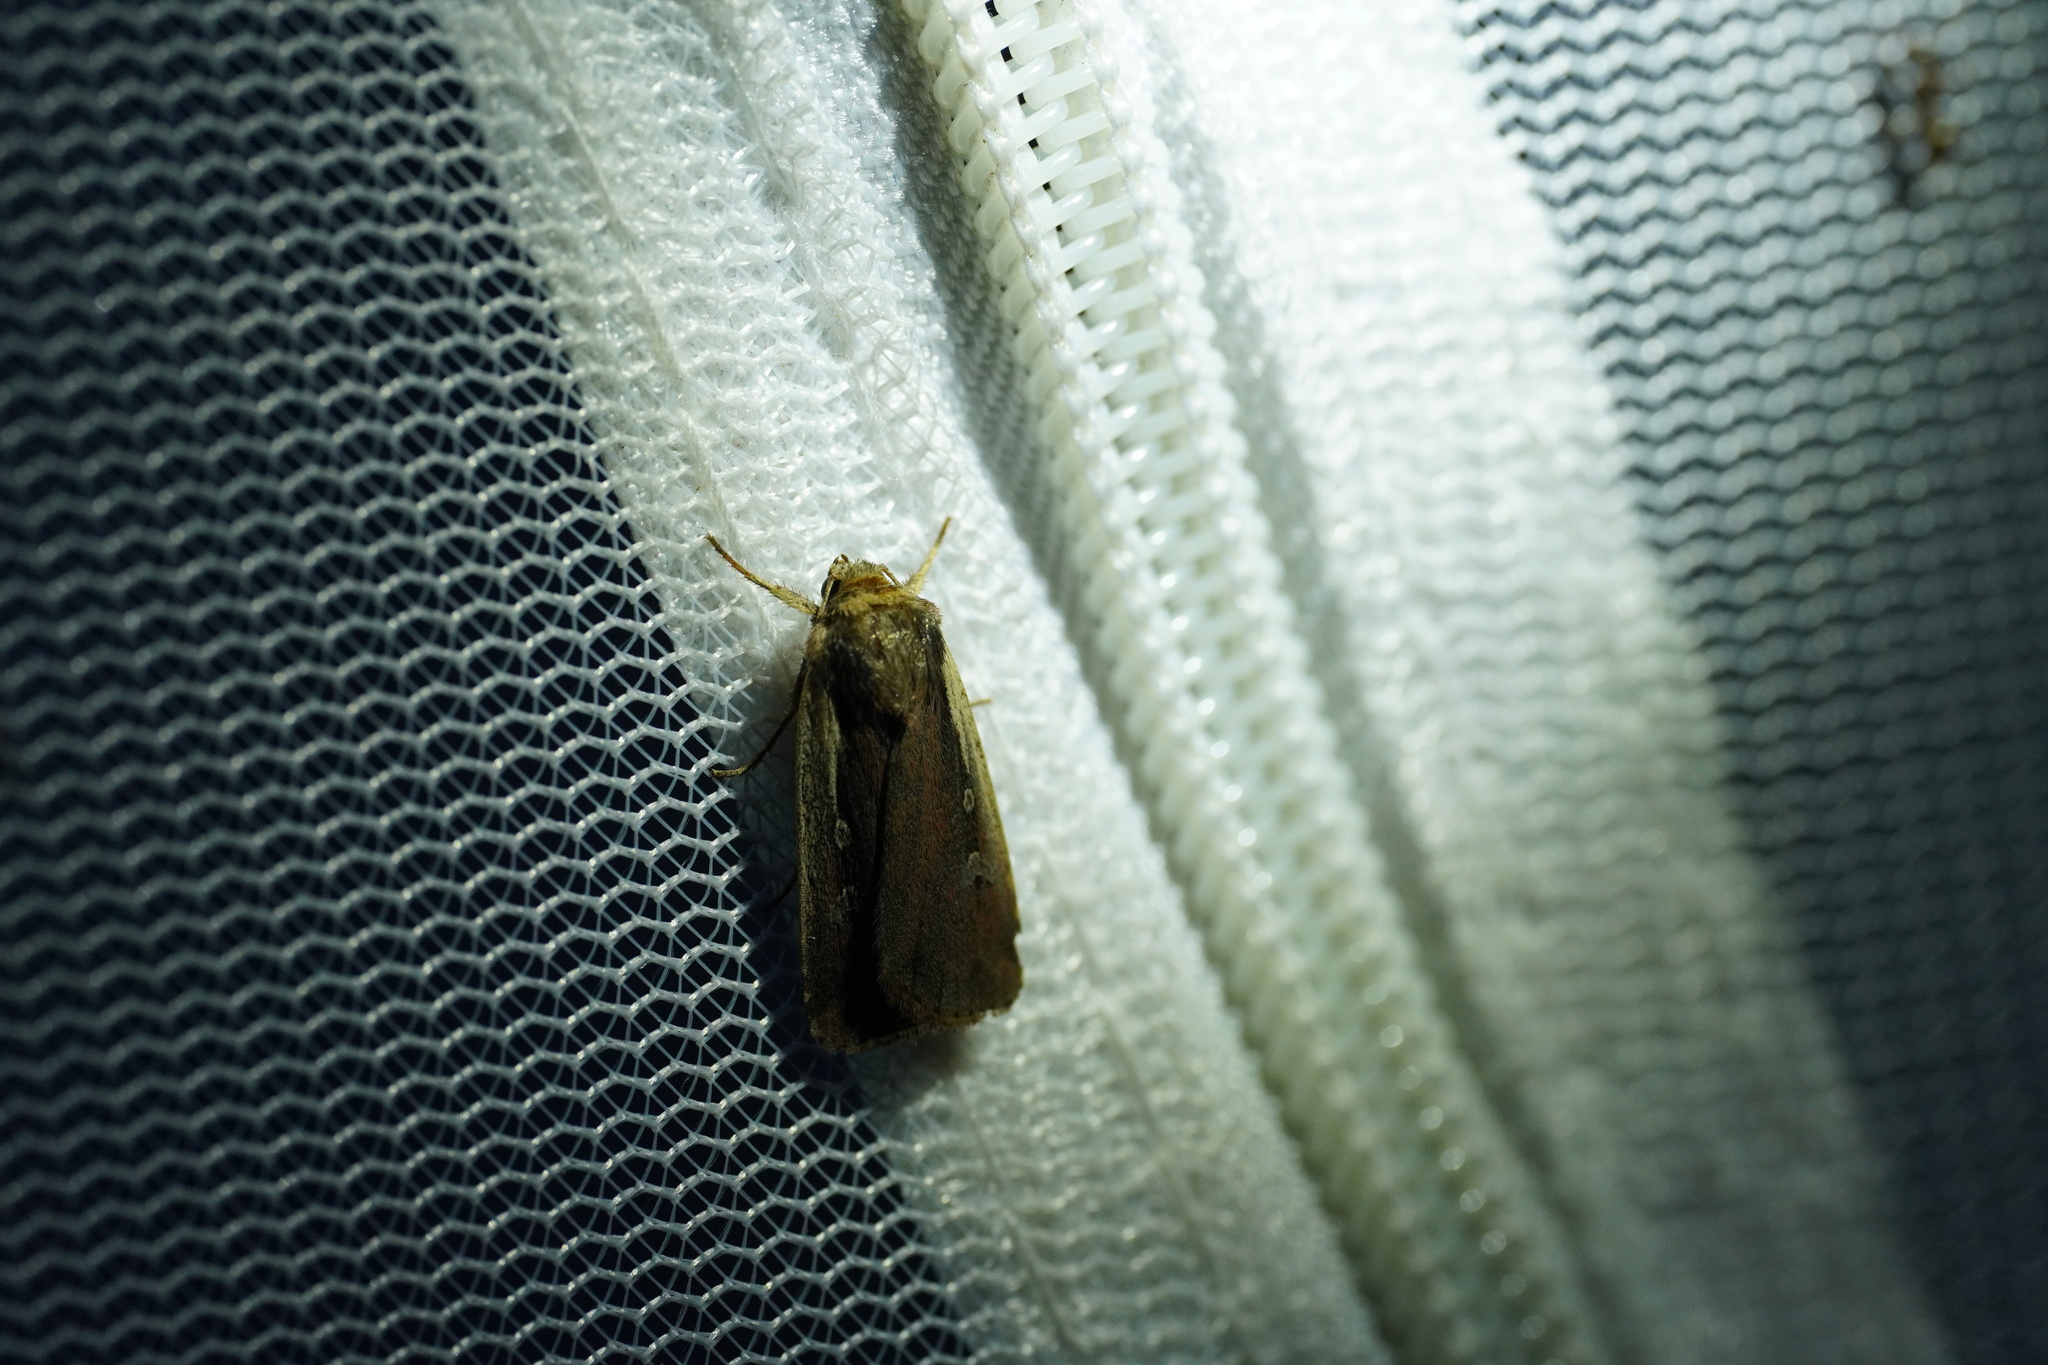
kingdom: Animalia
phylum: Arthropoda
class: Insecta
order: Lepidoptera
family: Noctuidae
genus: Ochropleura
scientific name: Ochropleura plecta
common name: Flame shoulder
